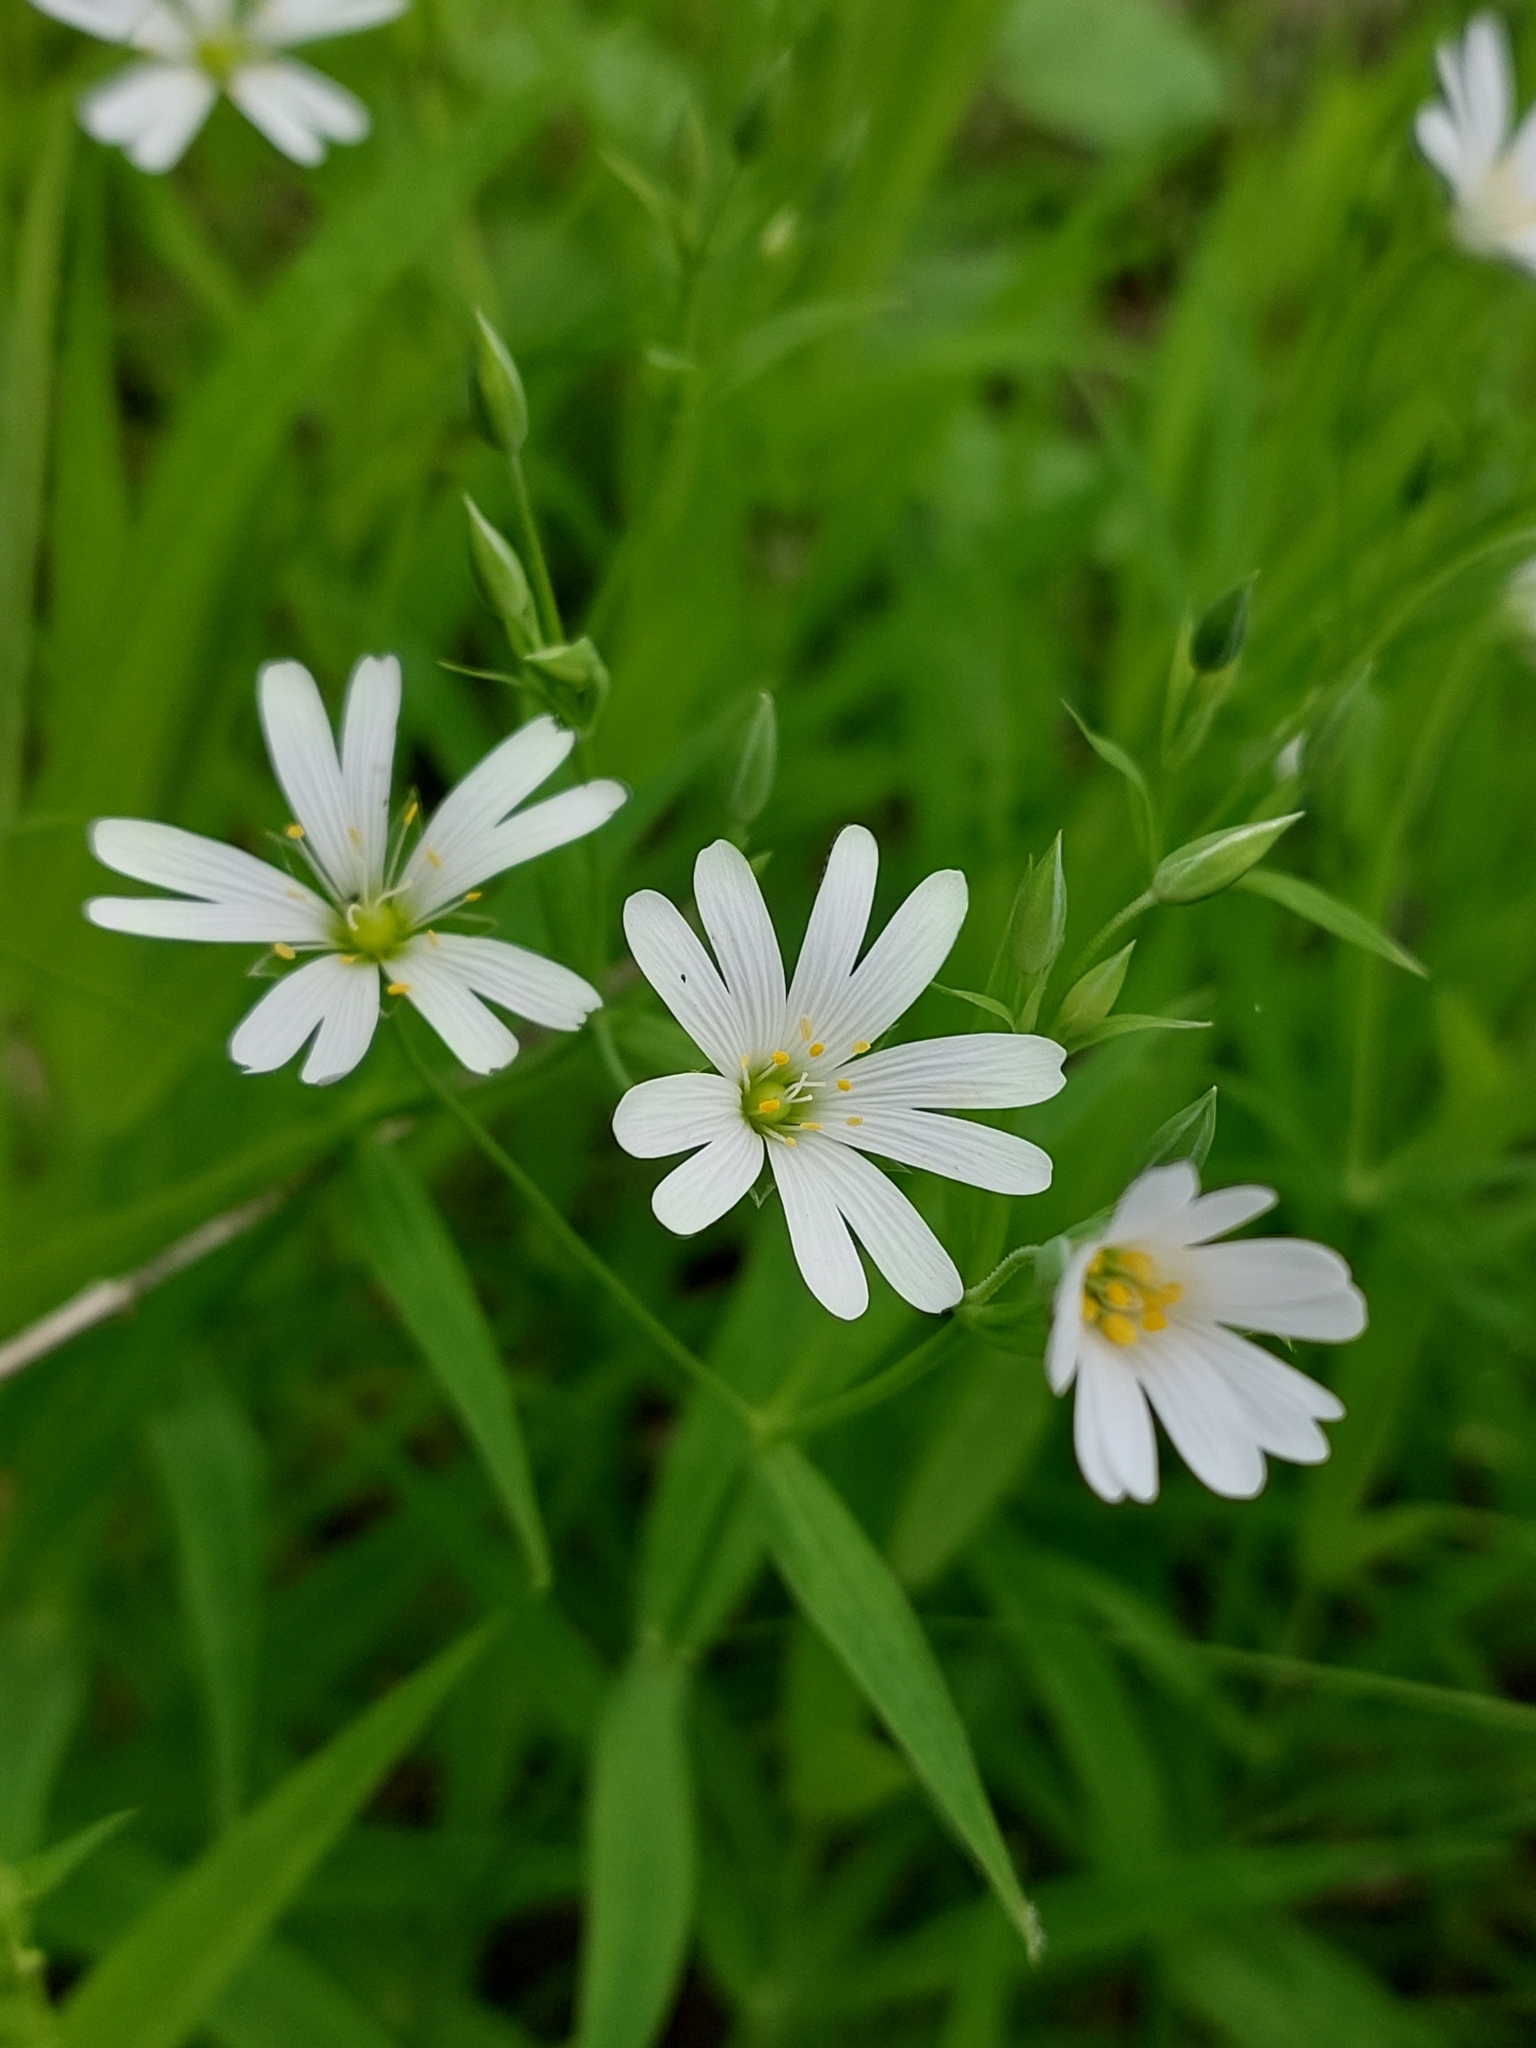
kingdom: Plantae
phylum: Tracheophyta
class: Magnoliopsida
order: Caryophyllales
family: Caryophyllaceae
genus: Rabelera
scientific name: Rabelera holostea
